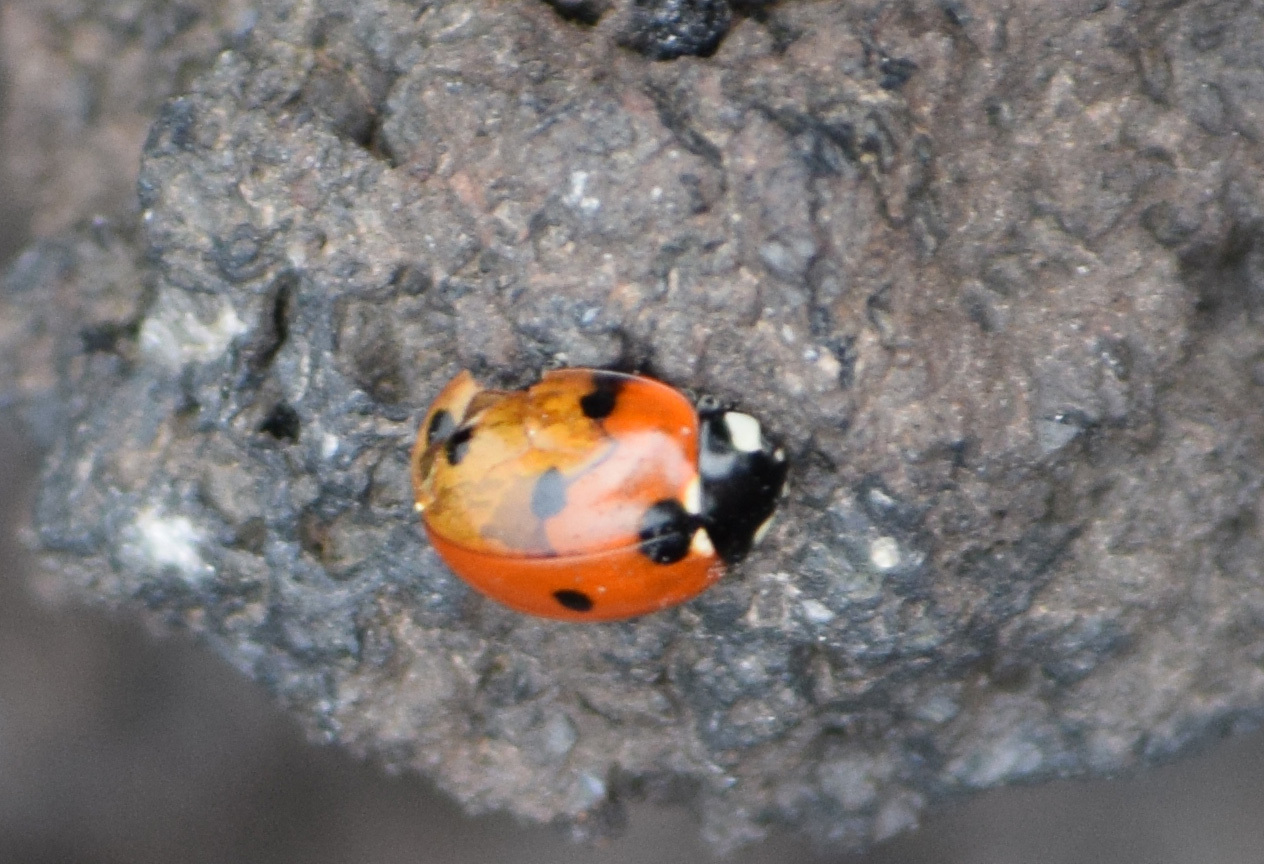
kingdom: Animalia
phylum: Arthropoda
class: Insecta
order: Coleoptera
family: Coccinellidae
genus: Coccinella
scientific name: Coccinella septempunctata
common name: Sevenspotted lady beetle
